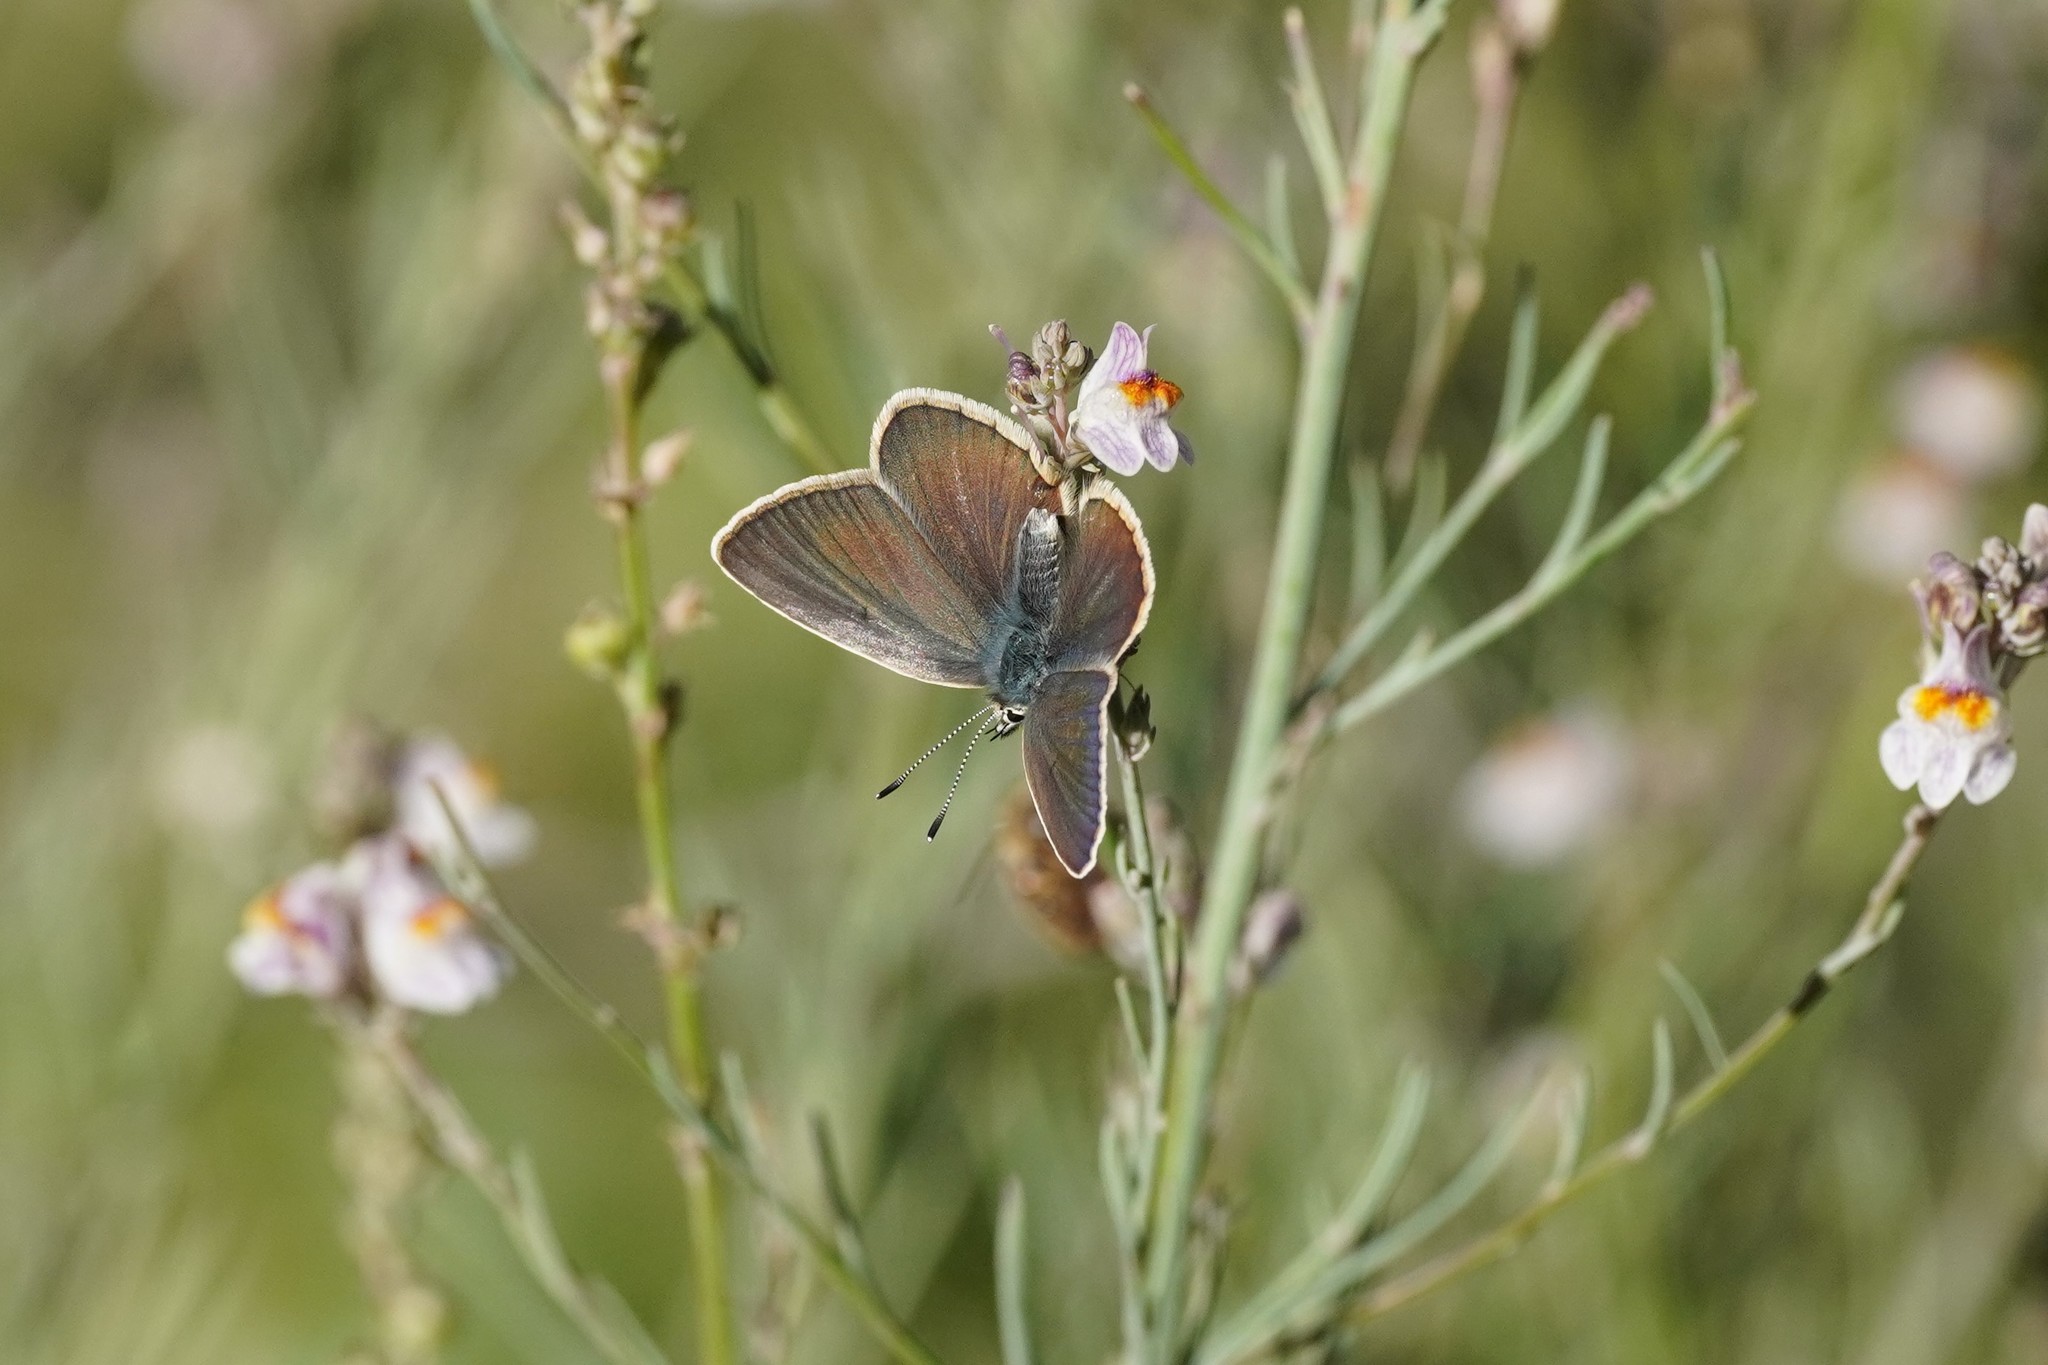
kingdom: Animalia
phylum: Arthropoda
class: Insecta
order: Lepidoptera
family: Lycaenidae
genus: Agrodiaetus
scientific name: Agrodiaetus damon
